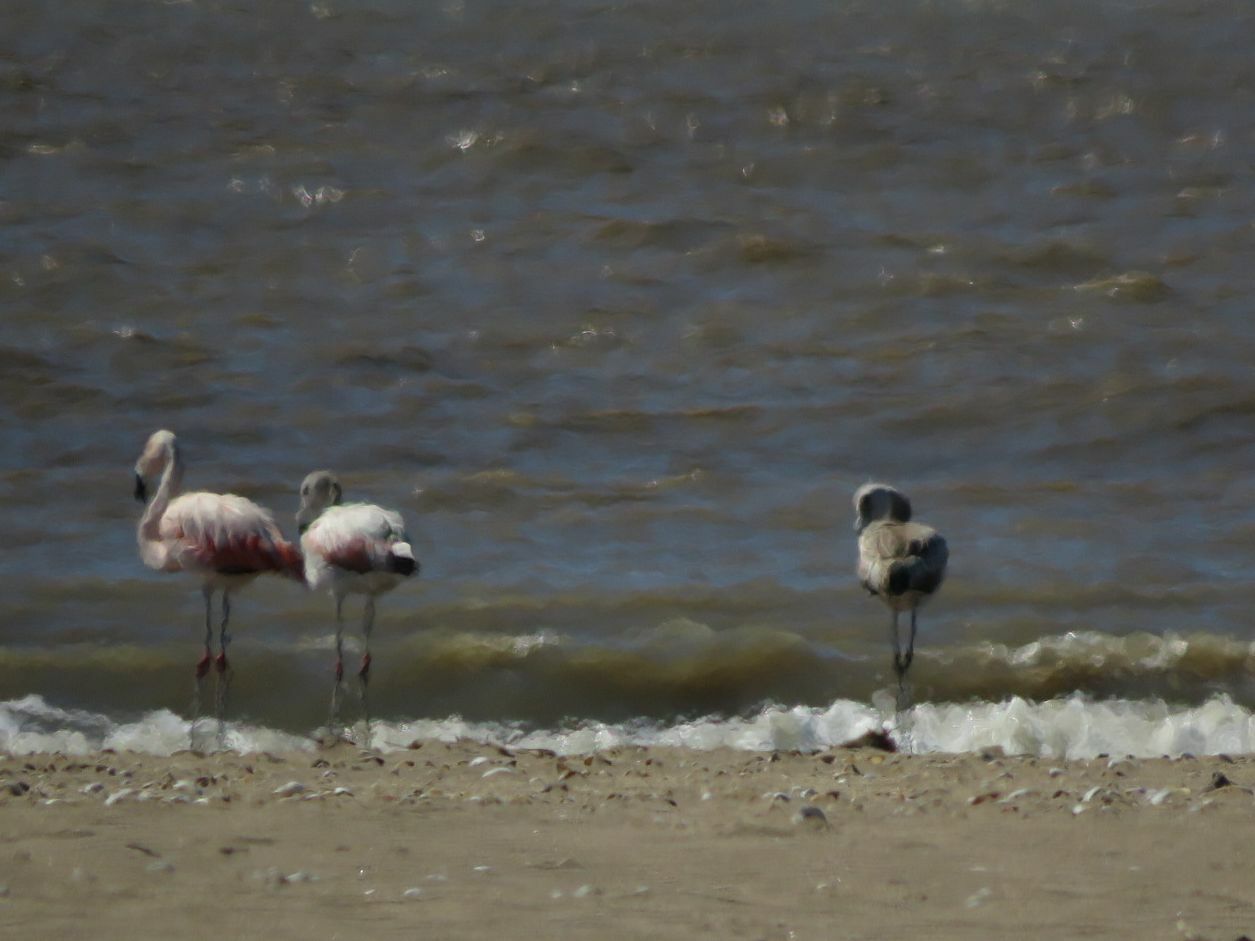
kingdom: Animalia
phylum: Chordata
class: Aves
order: Phoenicopteriformes
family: Phoenicopteridae
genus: Phoenicopterus
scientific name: Phoenicopterus chilensis
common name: Chilean flamingo
